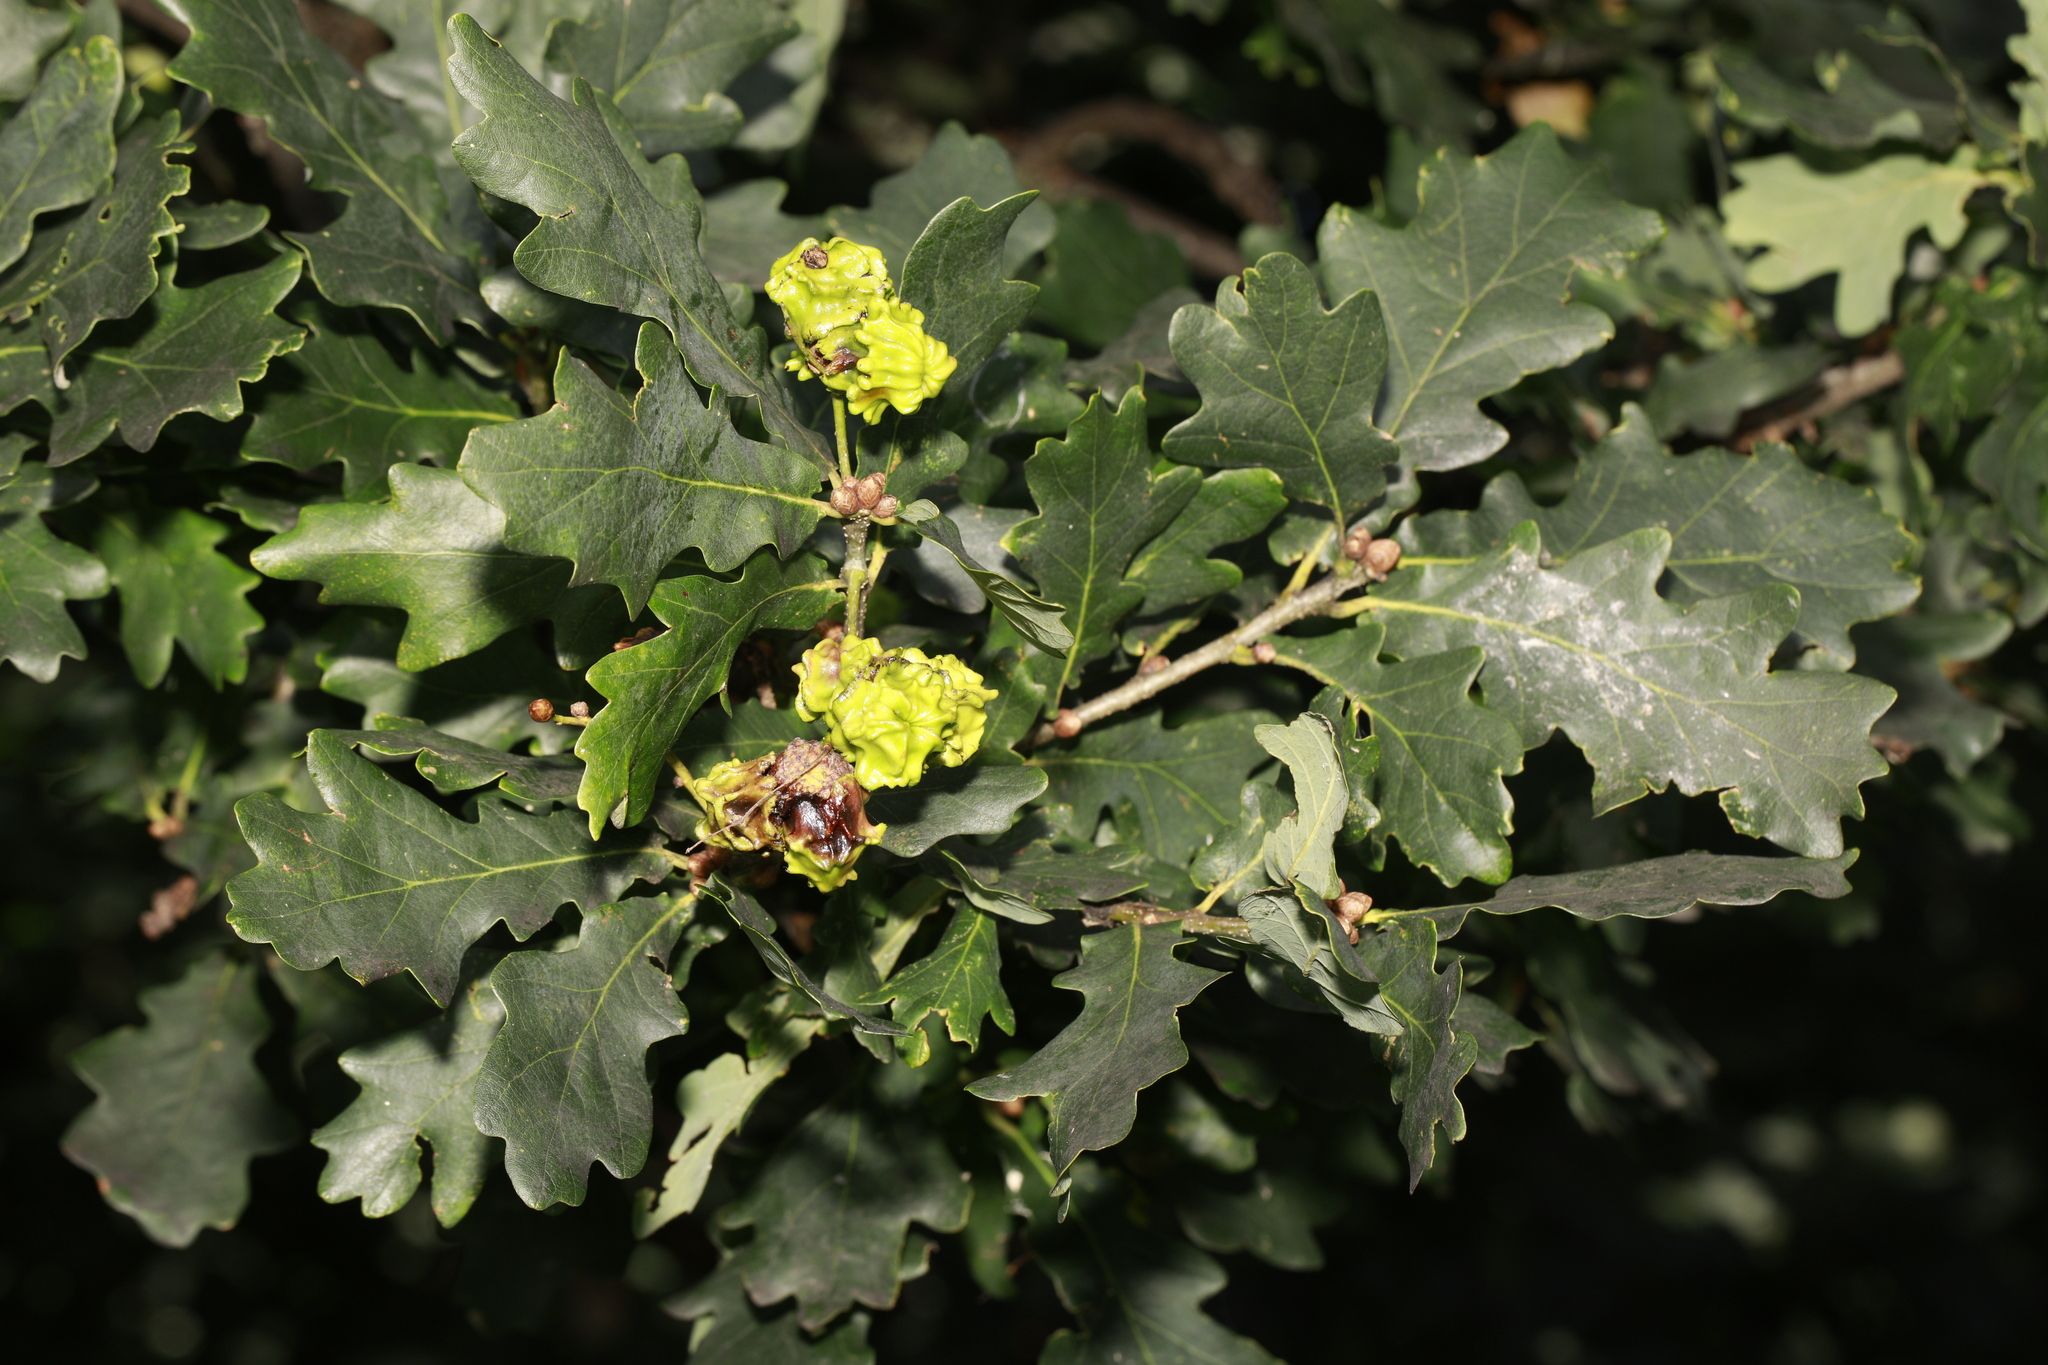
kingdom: Animalia
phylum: Arthropoda
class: Insecta
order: Hymenoptera
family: Cynipidae
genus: Andricus
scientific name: Andricus quercuscalicis
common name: Knopper gall
